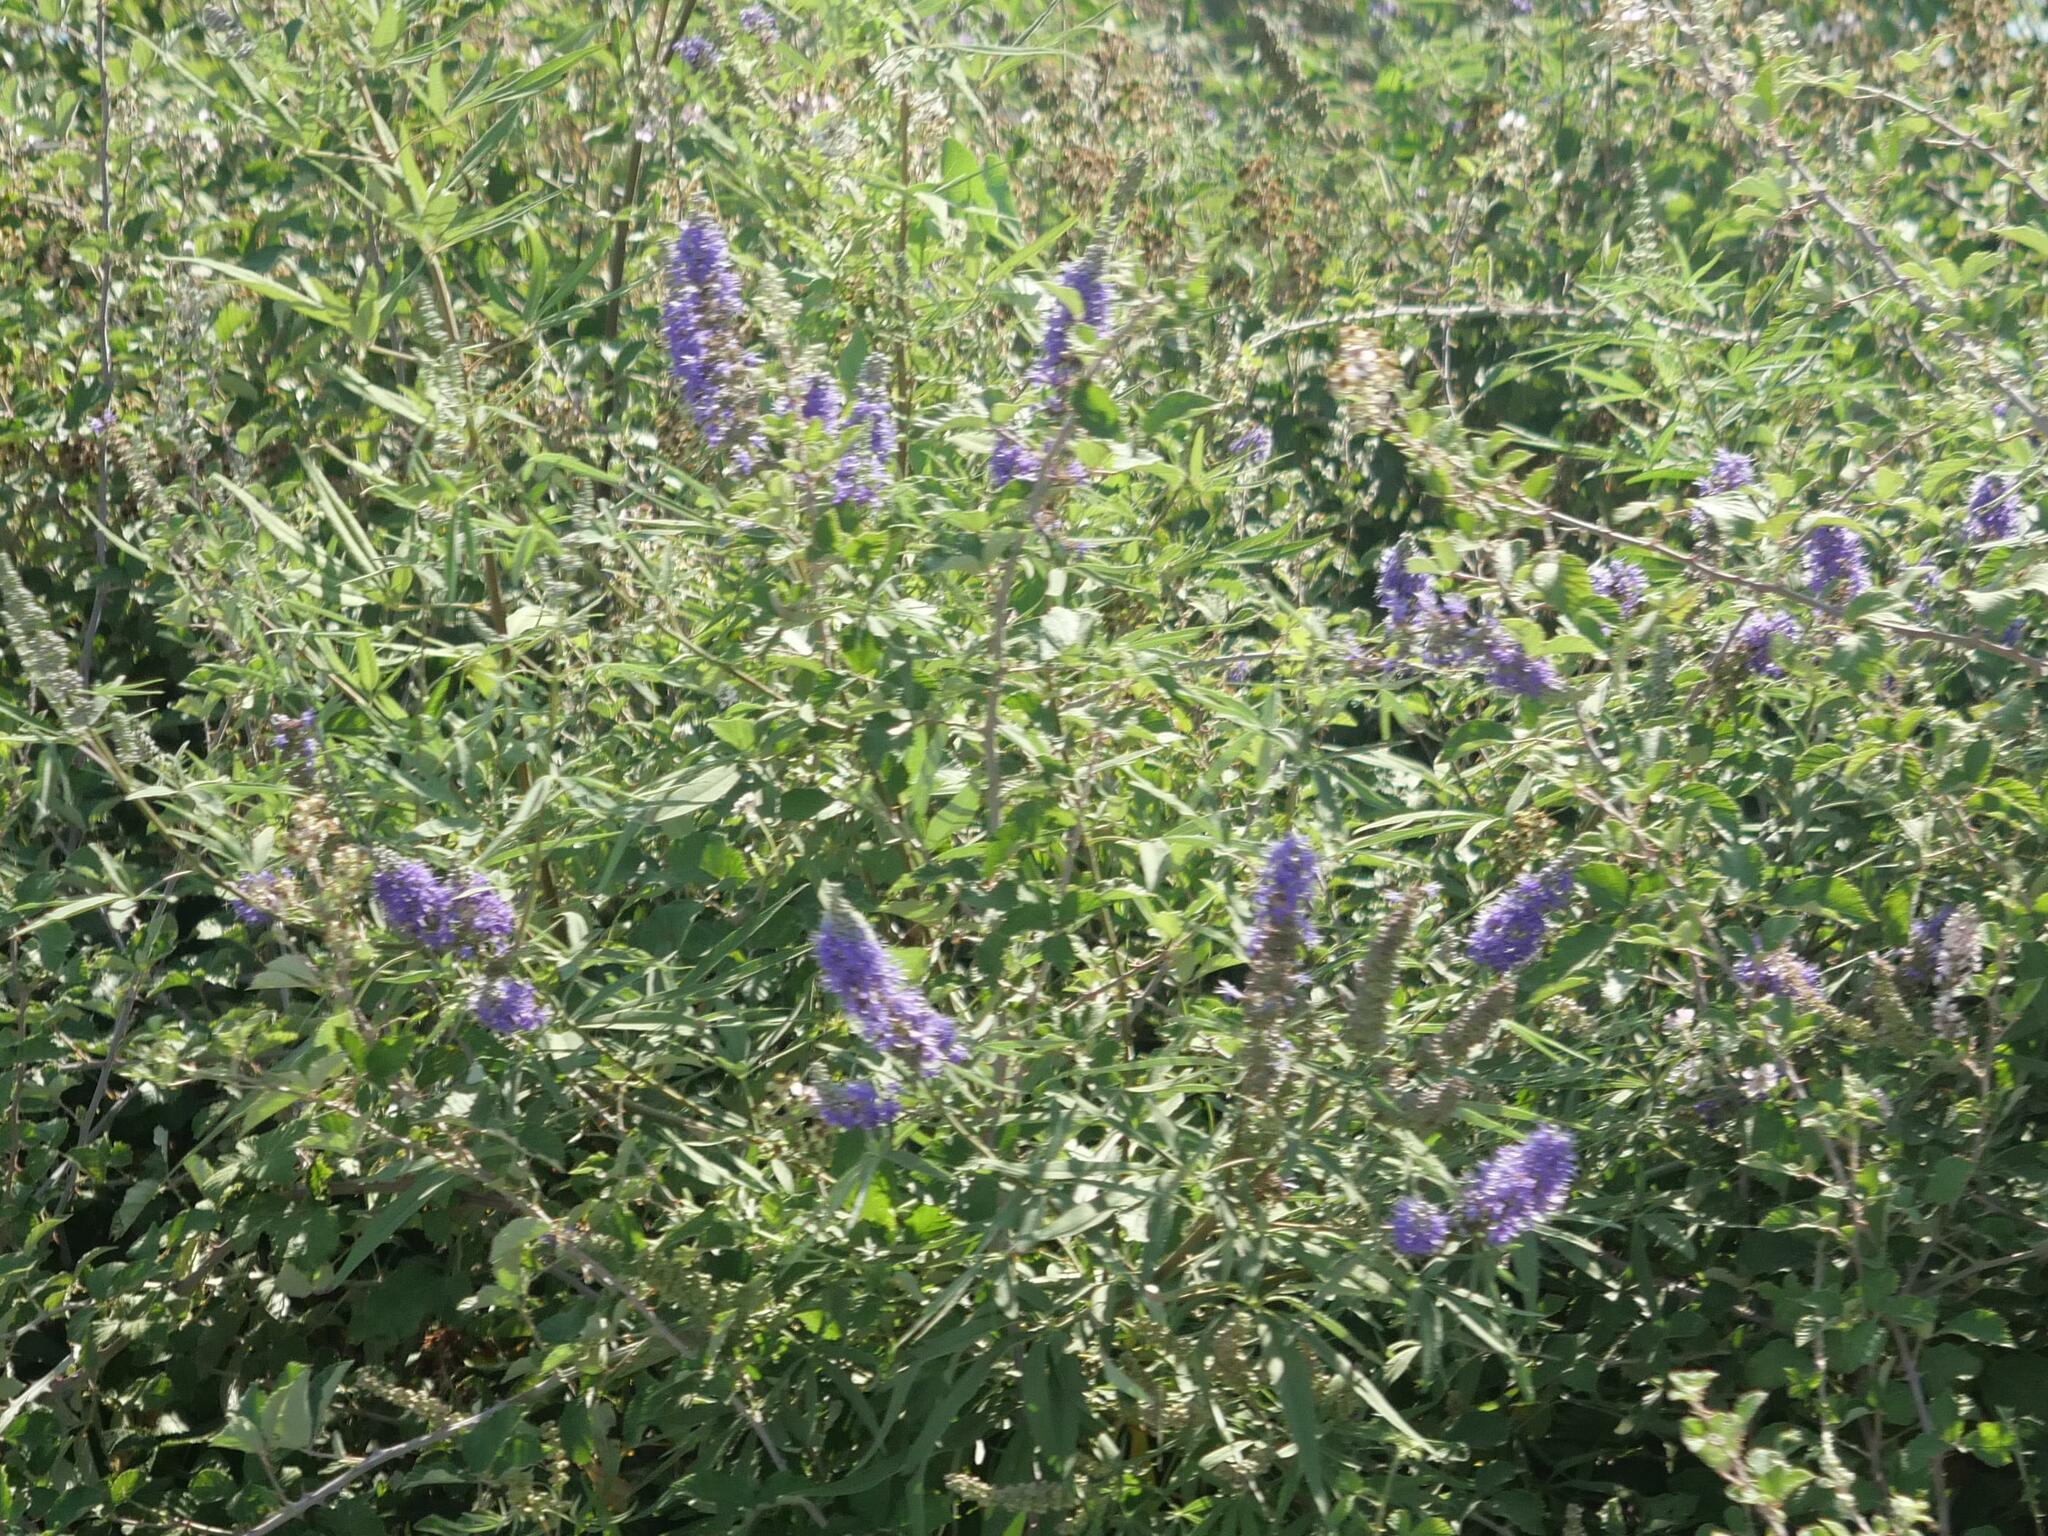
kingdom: Plantae
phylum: Tracheophyta
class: Magnoliopsida
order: Lamiales
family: Lamiaceae
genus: Vitex
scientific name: Vitex agnus-castus
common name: Chasteberry
